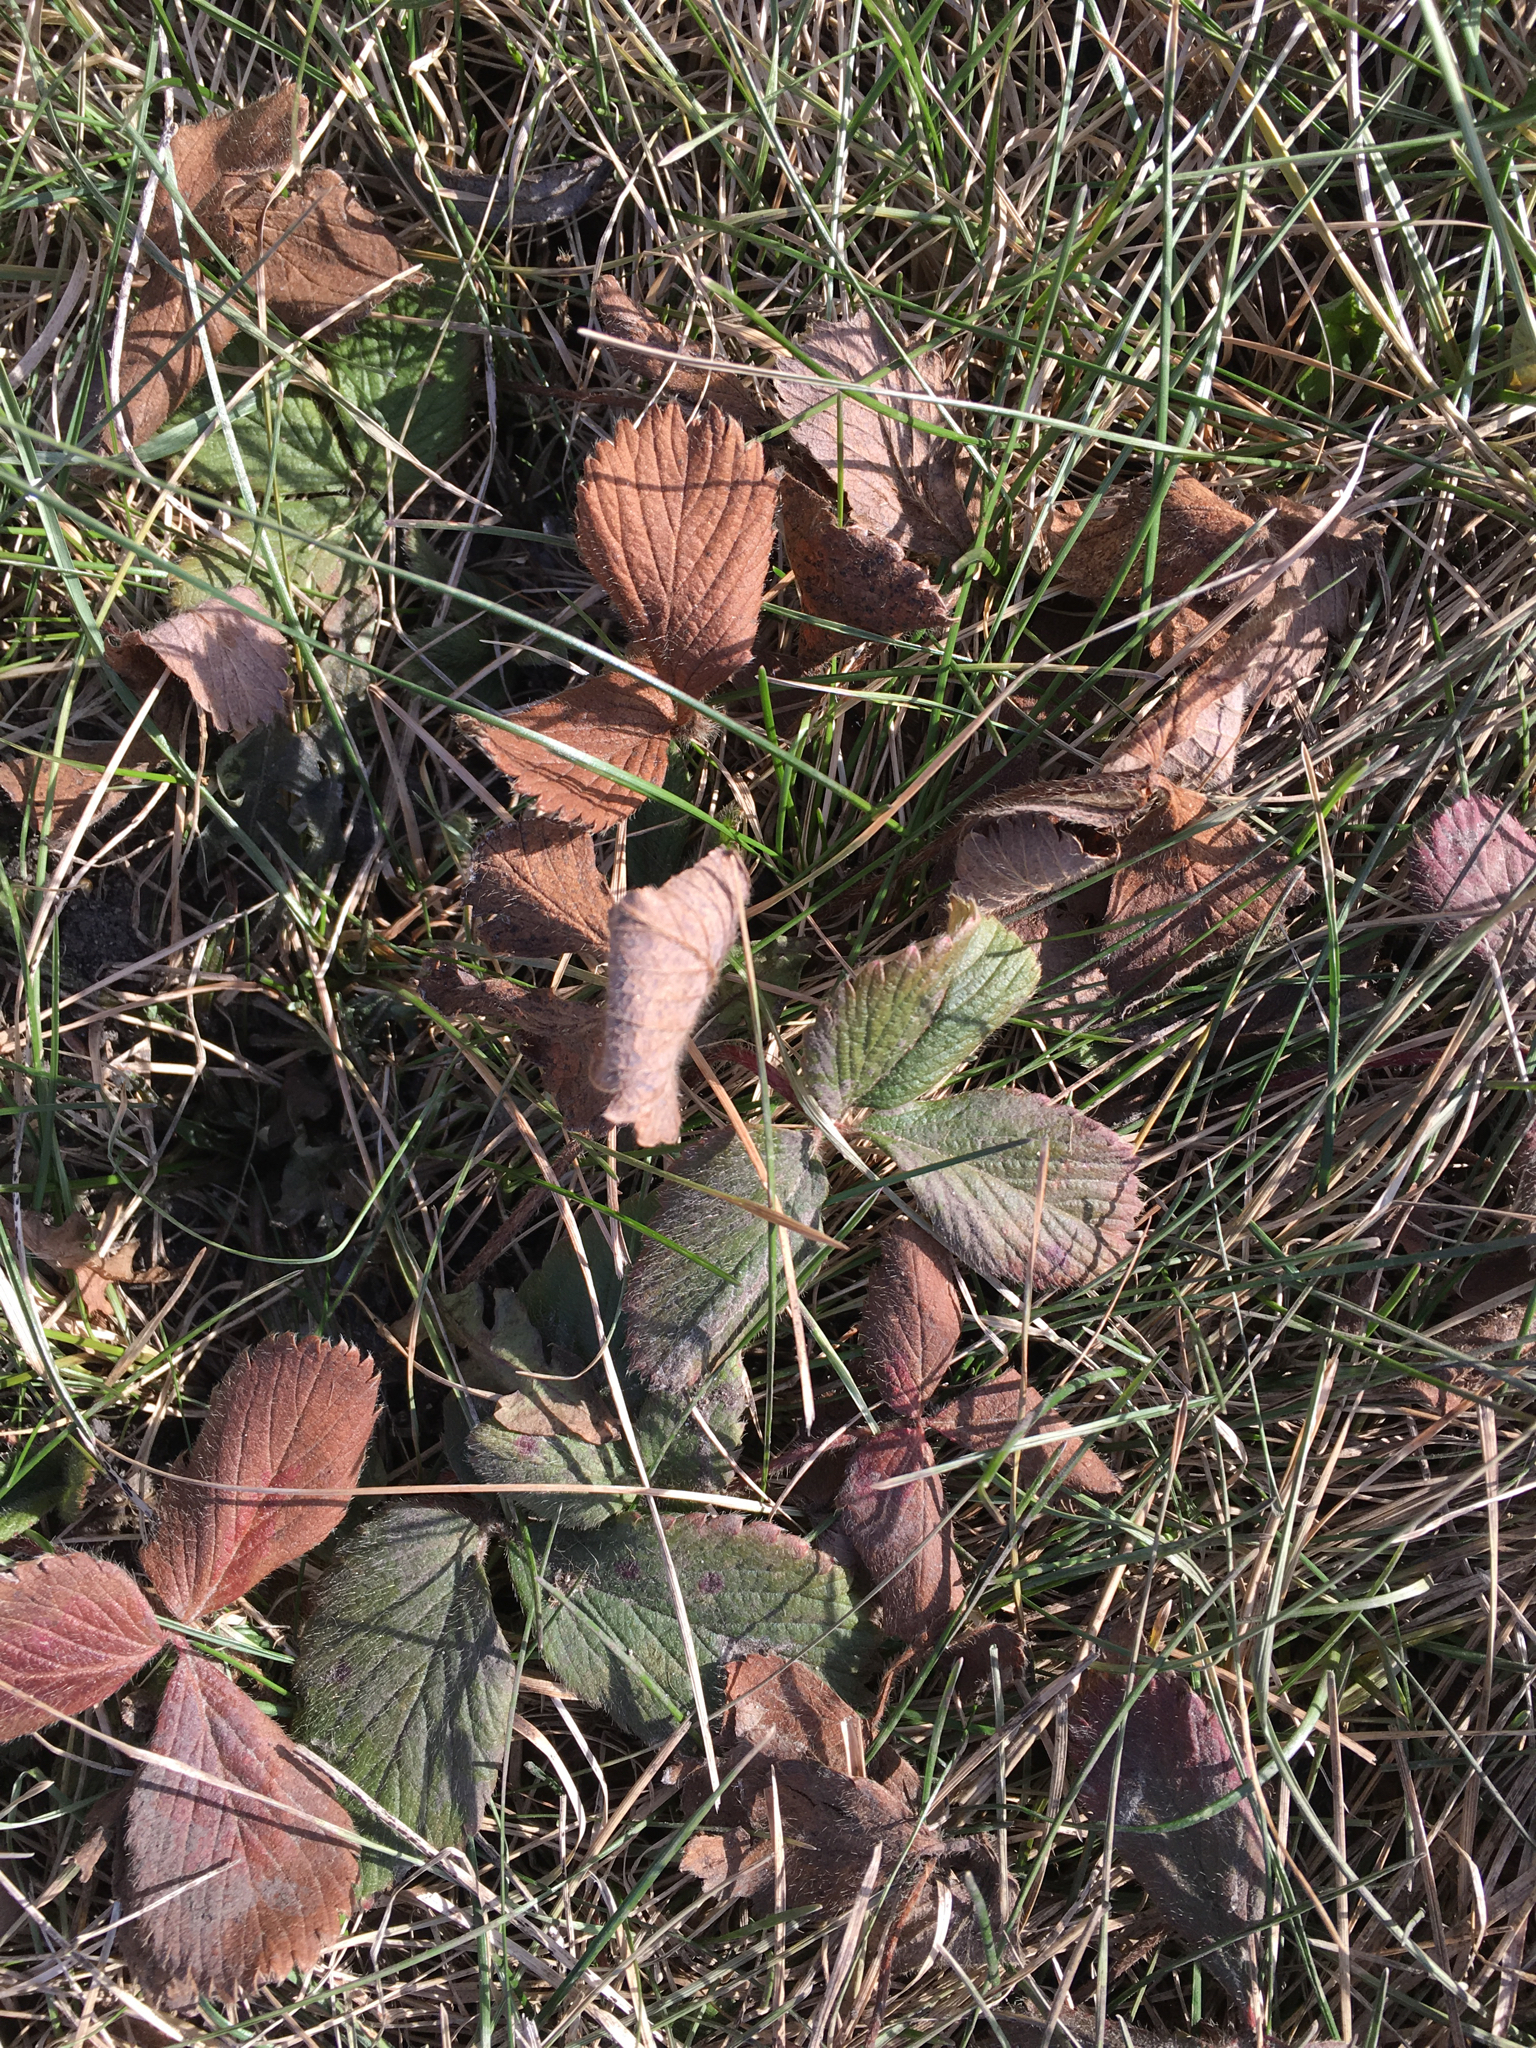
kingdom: Plantae
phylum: Tracheophyta
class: Magnoliopsida
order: Rosales
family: Rosaceae
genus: Fragaria
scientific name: Fragaria virginiana
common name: Thickleaved wild strawberry
